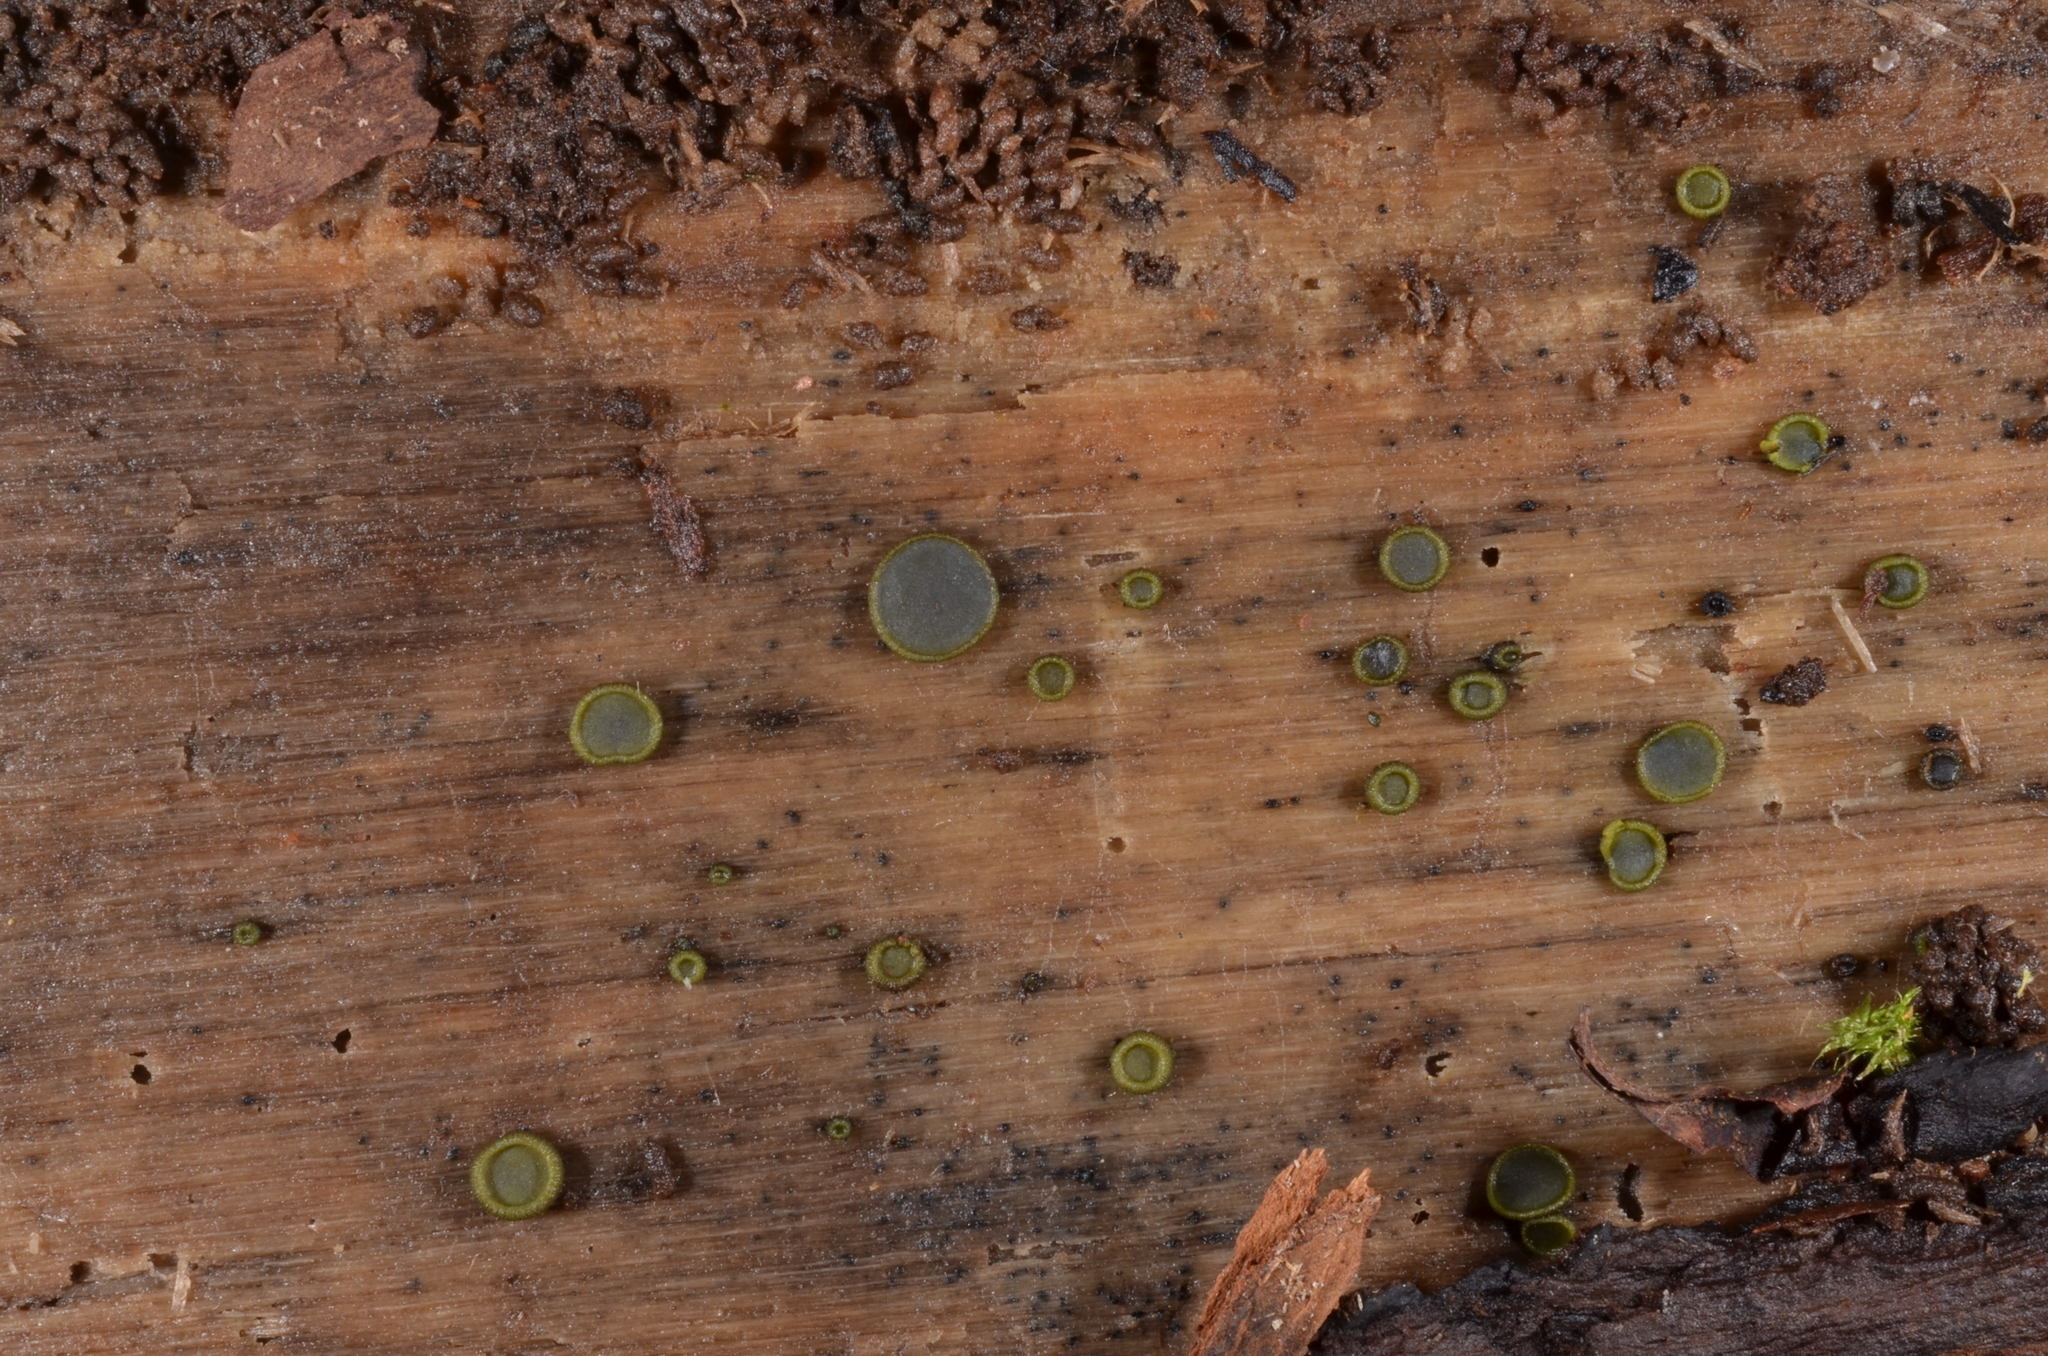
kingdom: Fungi
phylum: Ascomycota
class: Dothideomycetes
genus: Catinella
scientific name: Catinella olivacea
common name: Olive salver
